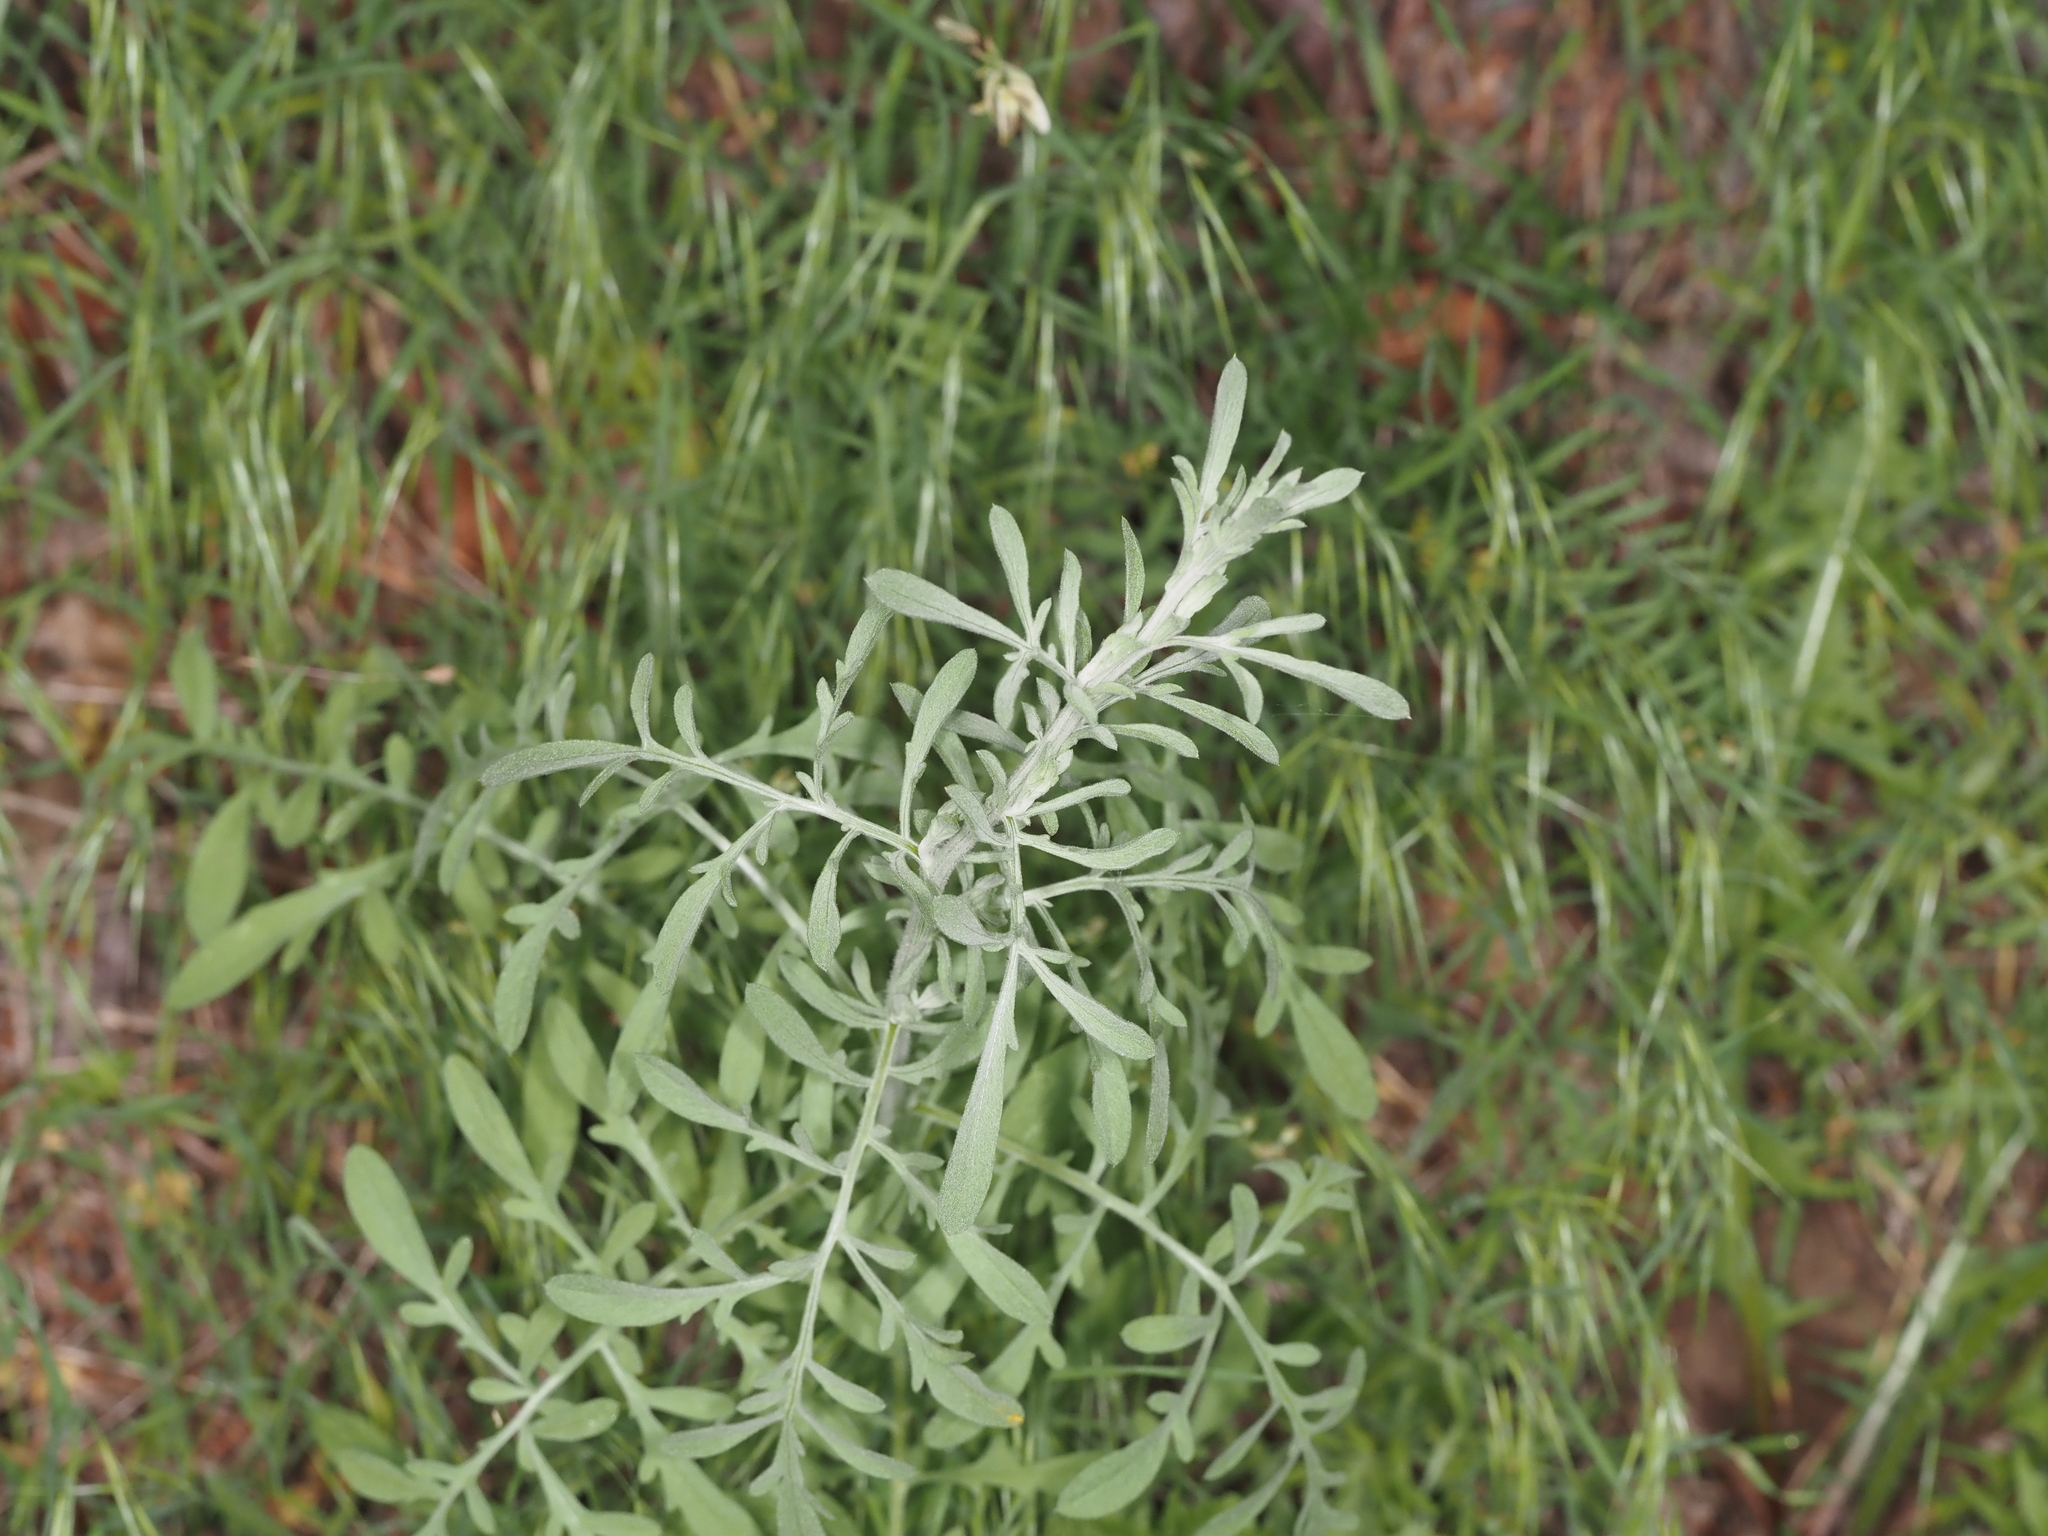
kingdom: Plantae
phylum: Tracheophyta
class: Magnoliopsida
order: Asterales
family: Asteraceae
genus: Centaurea
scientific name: Centaurea diffusa
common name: Diffuse knapweed
